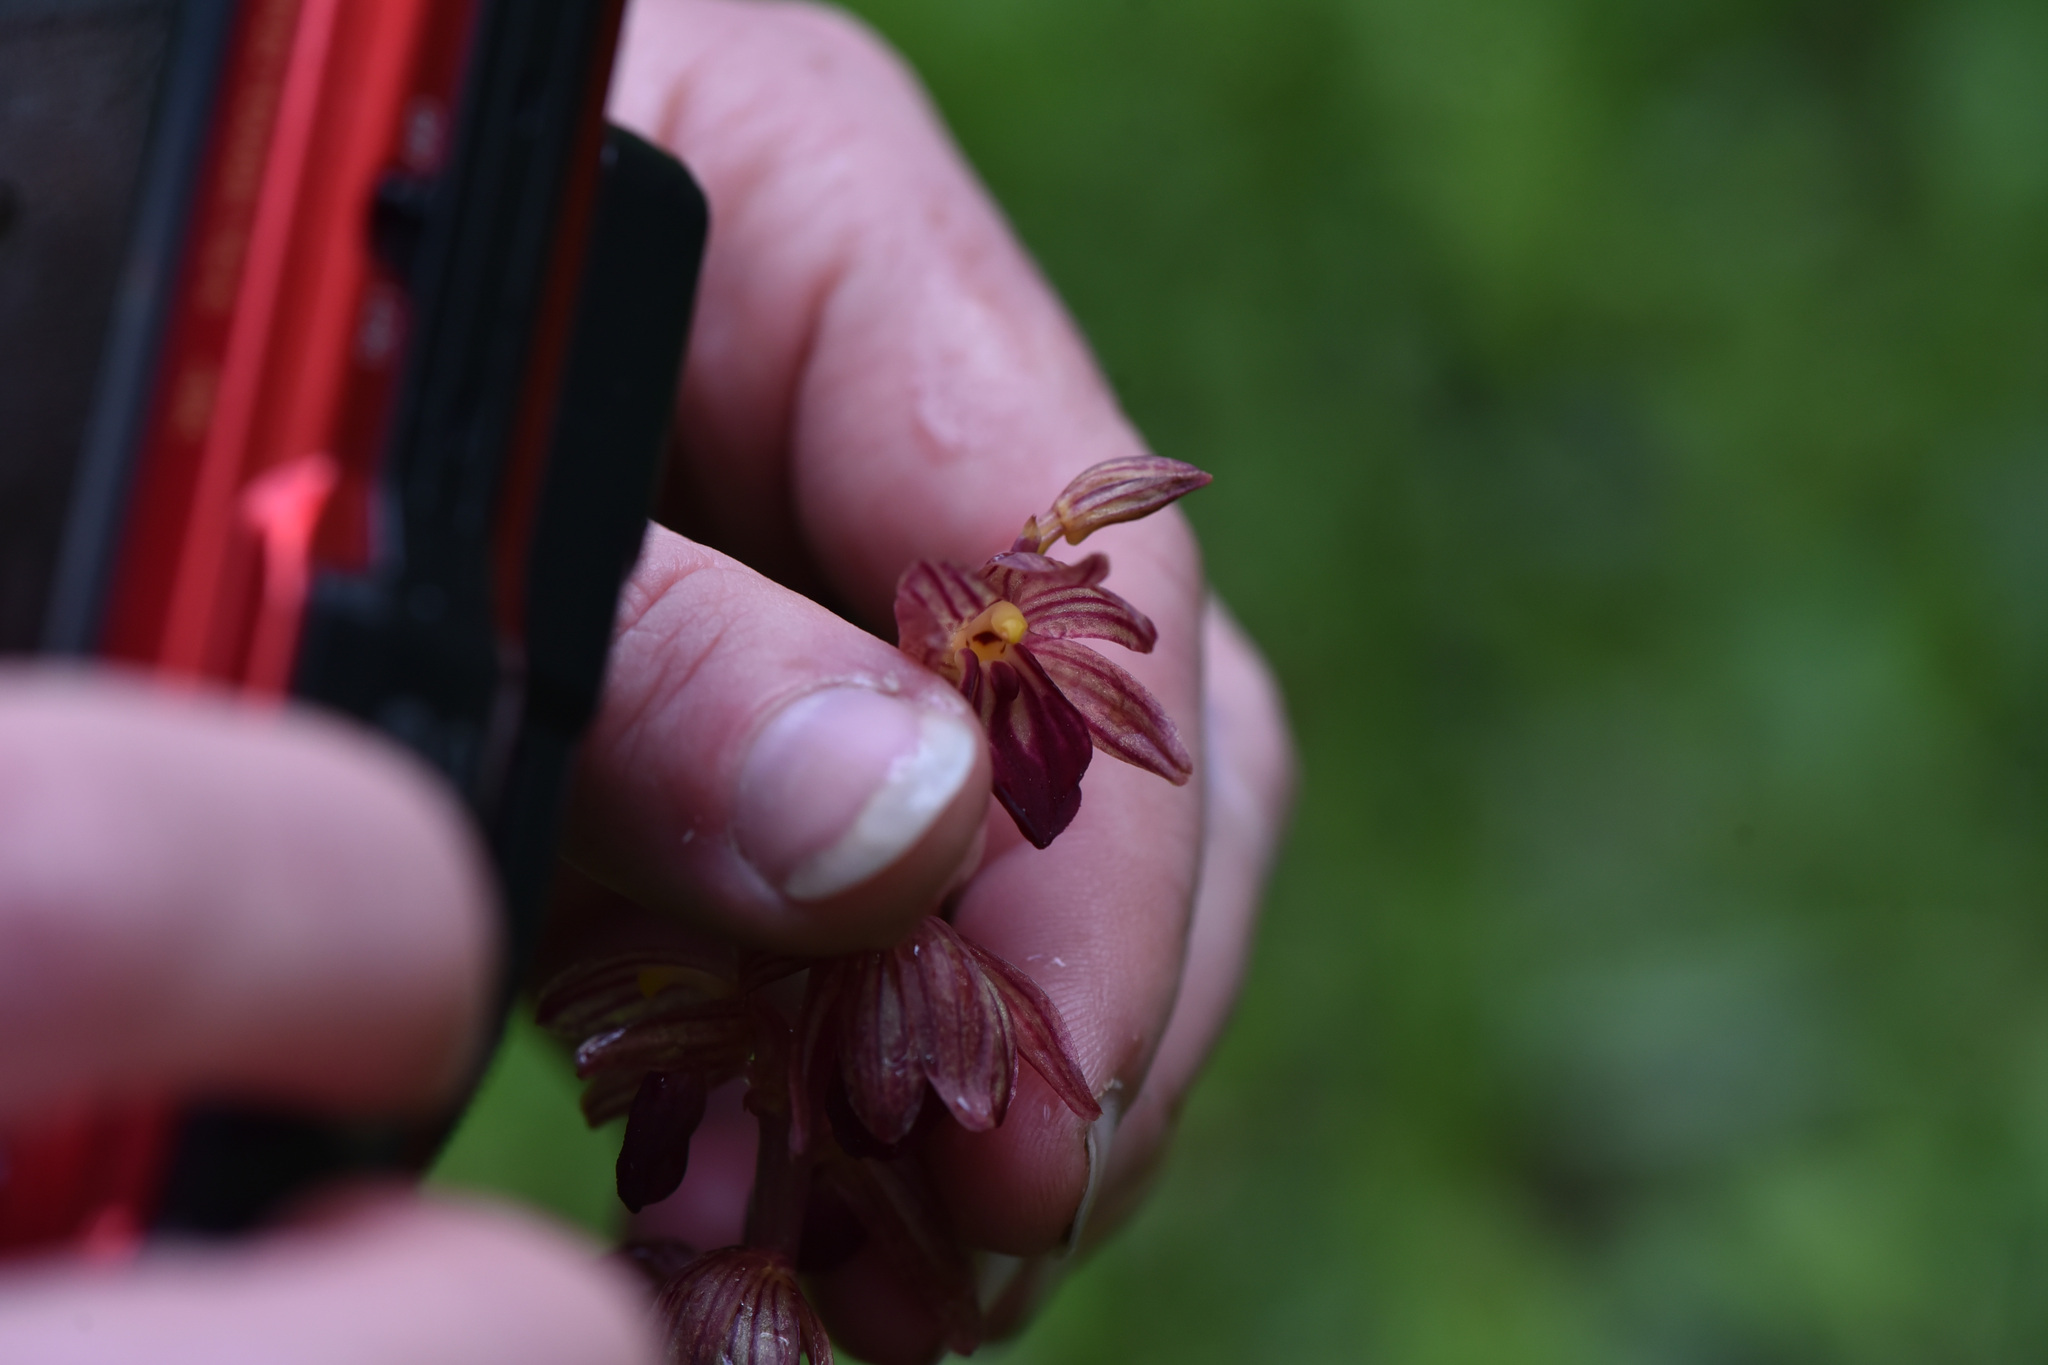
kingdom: Plantae
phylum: Tracheophyta
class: Liliopsida
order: Asparagales
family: Orchidaceae
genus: Corallorhiza
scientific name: Corallorhiza striata
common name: Hooded coralroot
